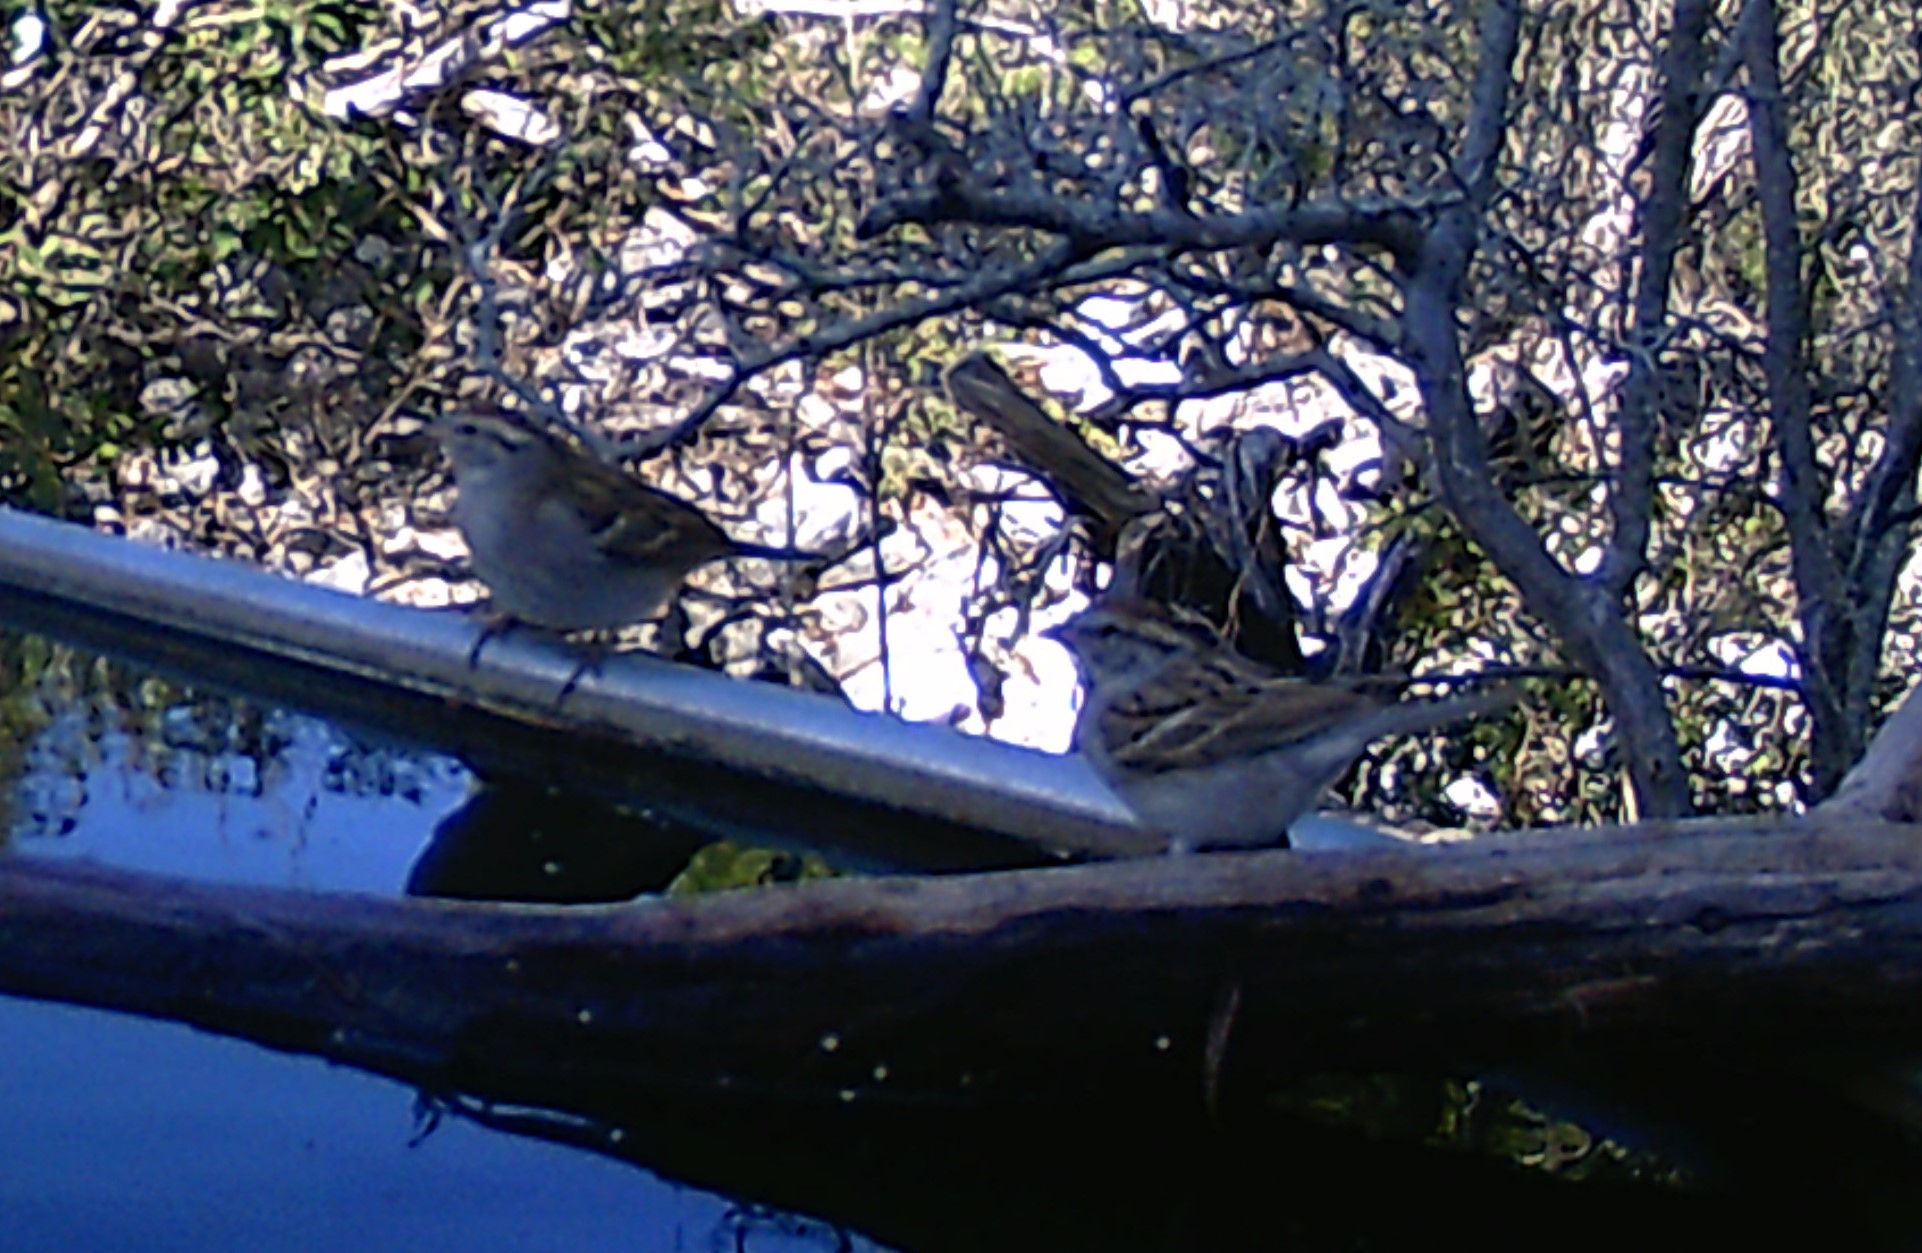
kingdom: Animalia
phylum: Chordata
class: Aves
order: Passeriformes
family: Passerellidae
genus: Spizella
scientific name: Spizella passerina
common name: Chipping sparrow
